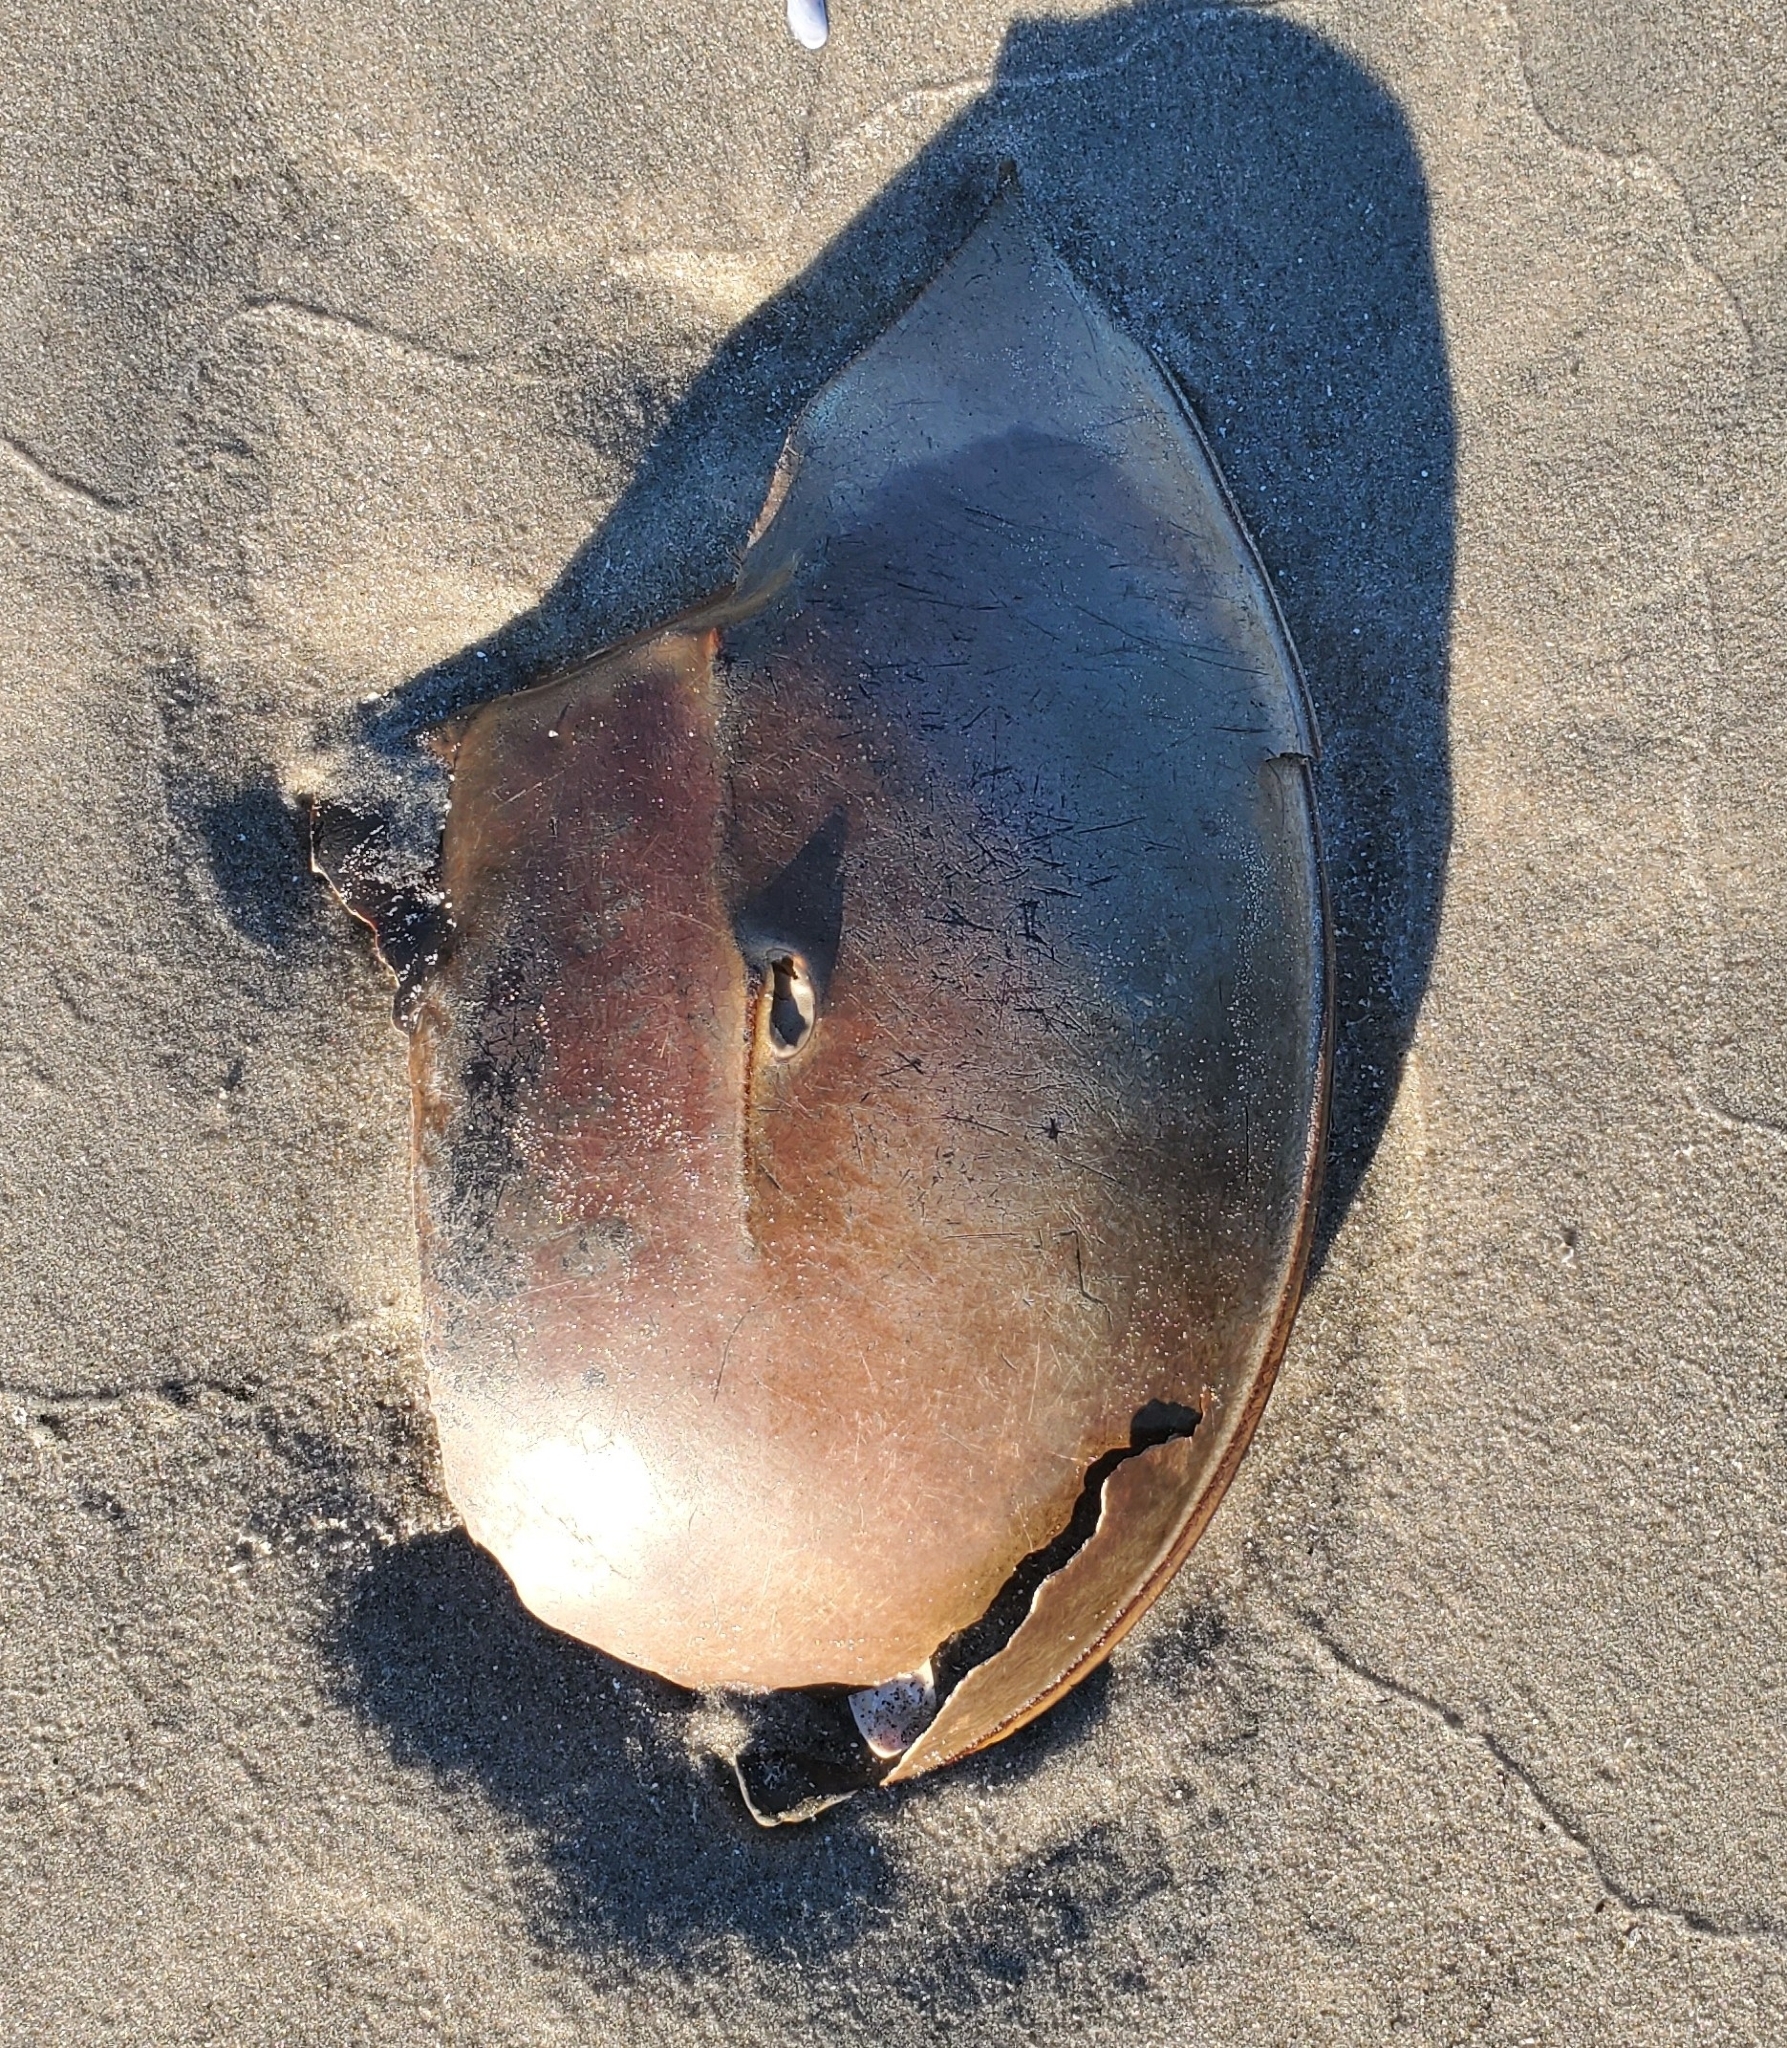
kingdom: Animalia
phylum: Arthropoda
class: Merostomata
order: Xiphosurida
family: Limulidae
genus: Limulus
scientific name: Limulus polyphemus
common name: Horseshoe crab
